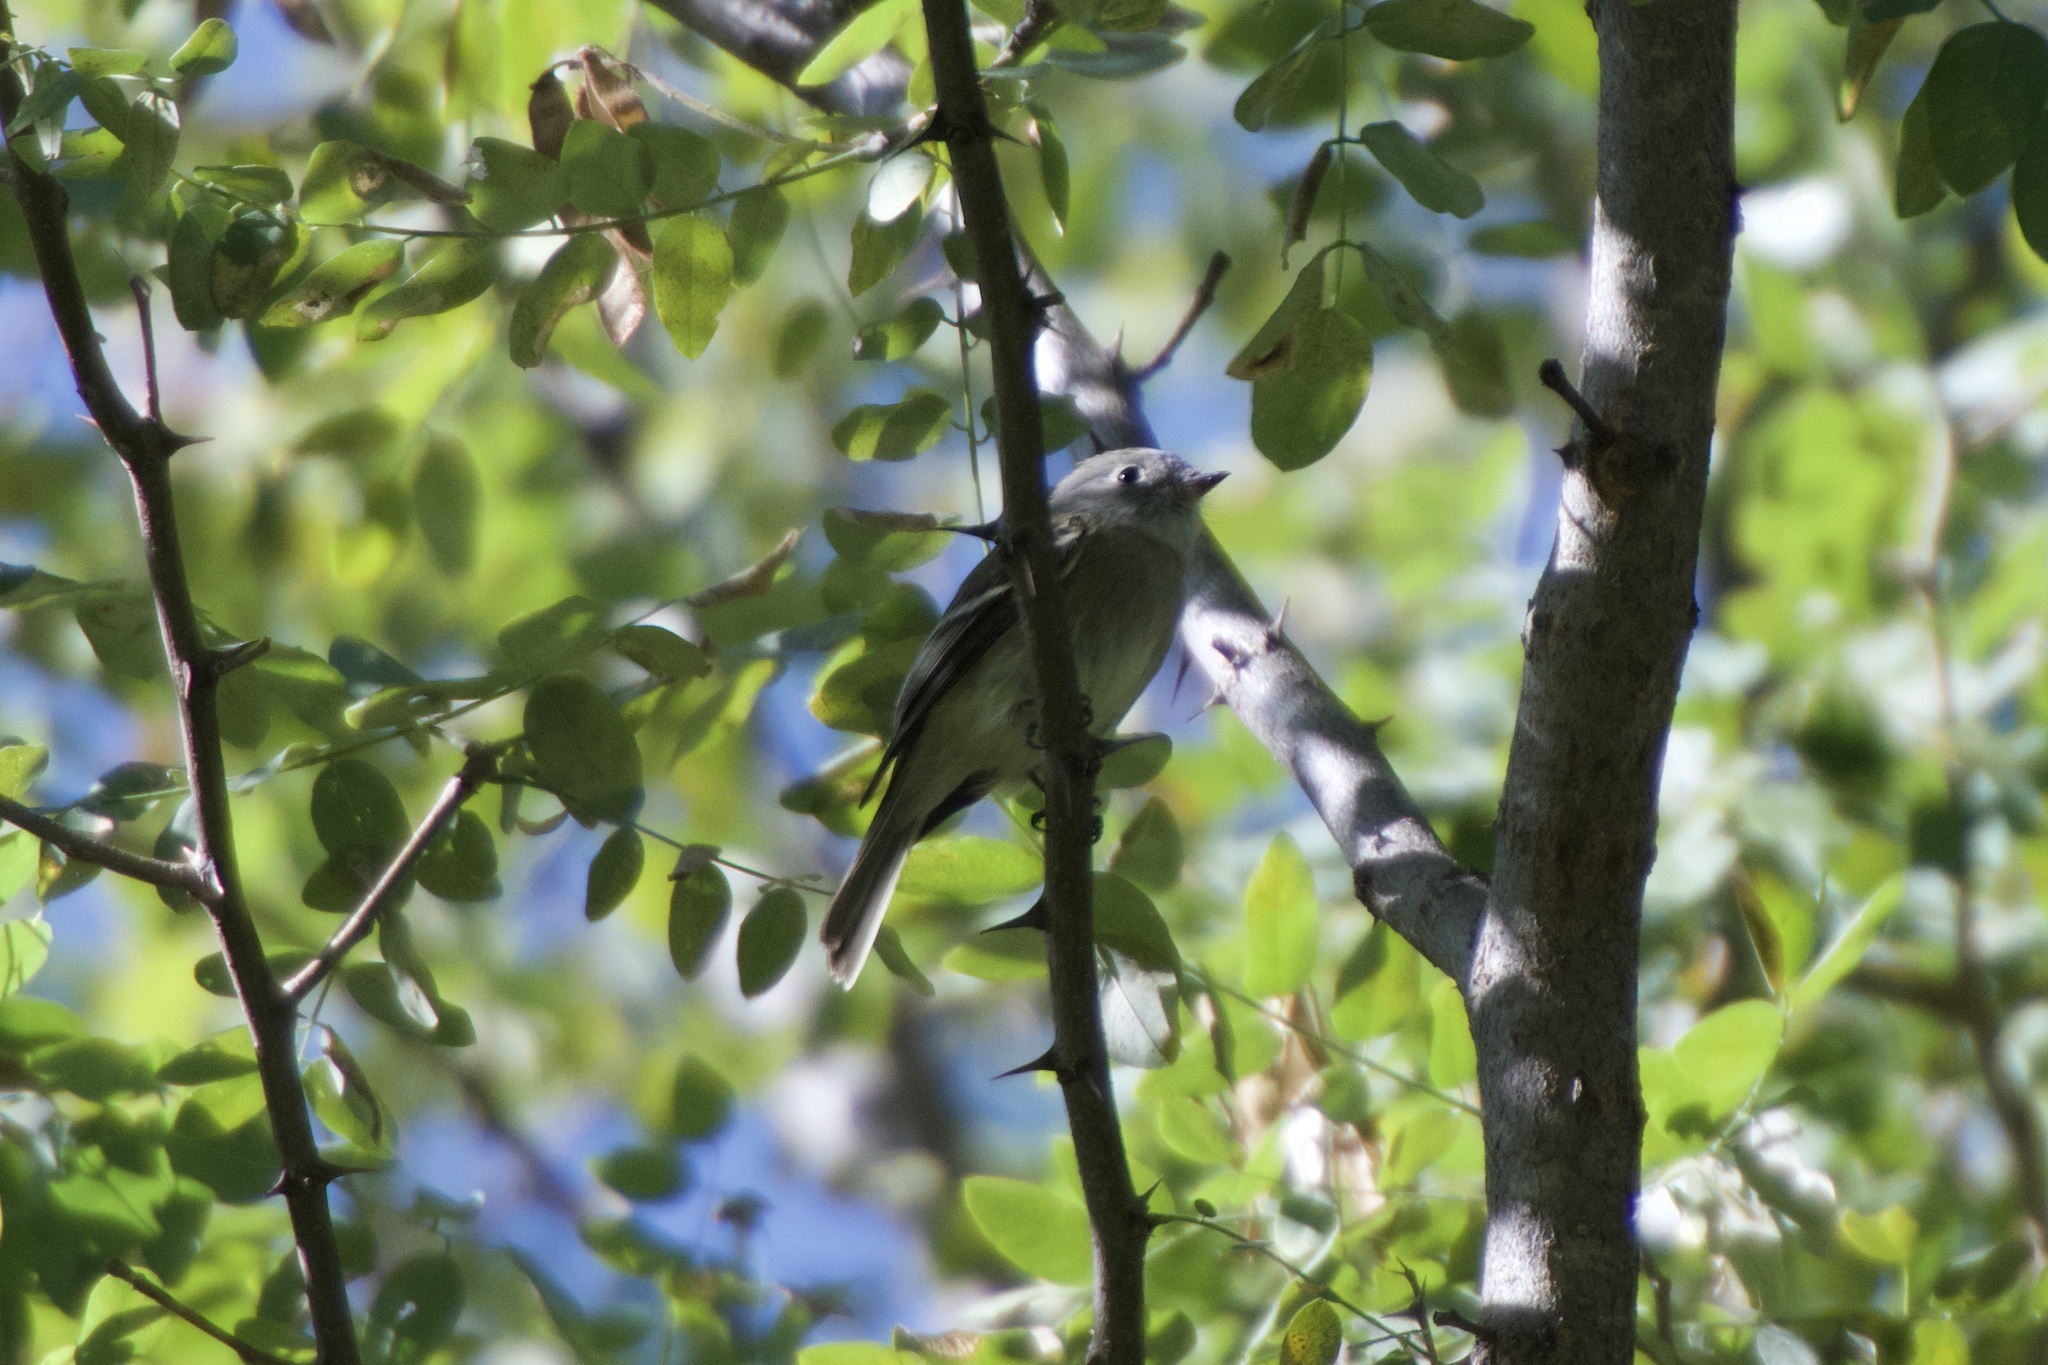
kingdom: Animalia
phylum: Chordata
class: Aves
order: Passeriformes
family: Tyrannidae
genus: Empidonax
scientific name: Empidonax hammondii
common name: Hammond's flycatcher
